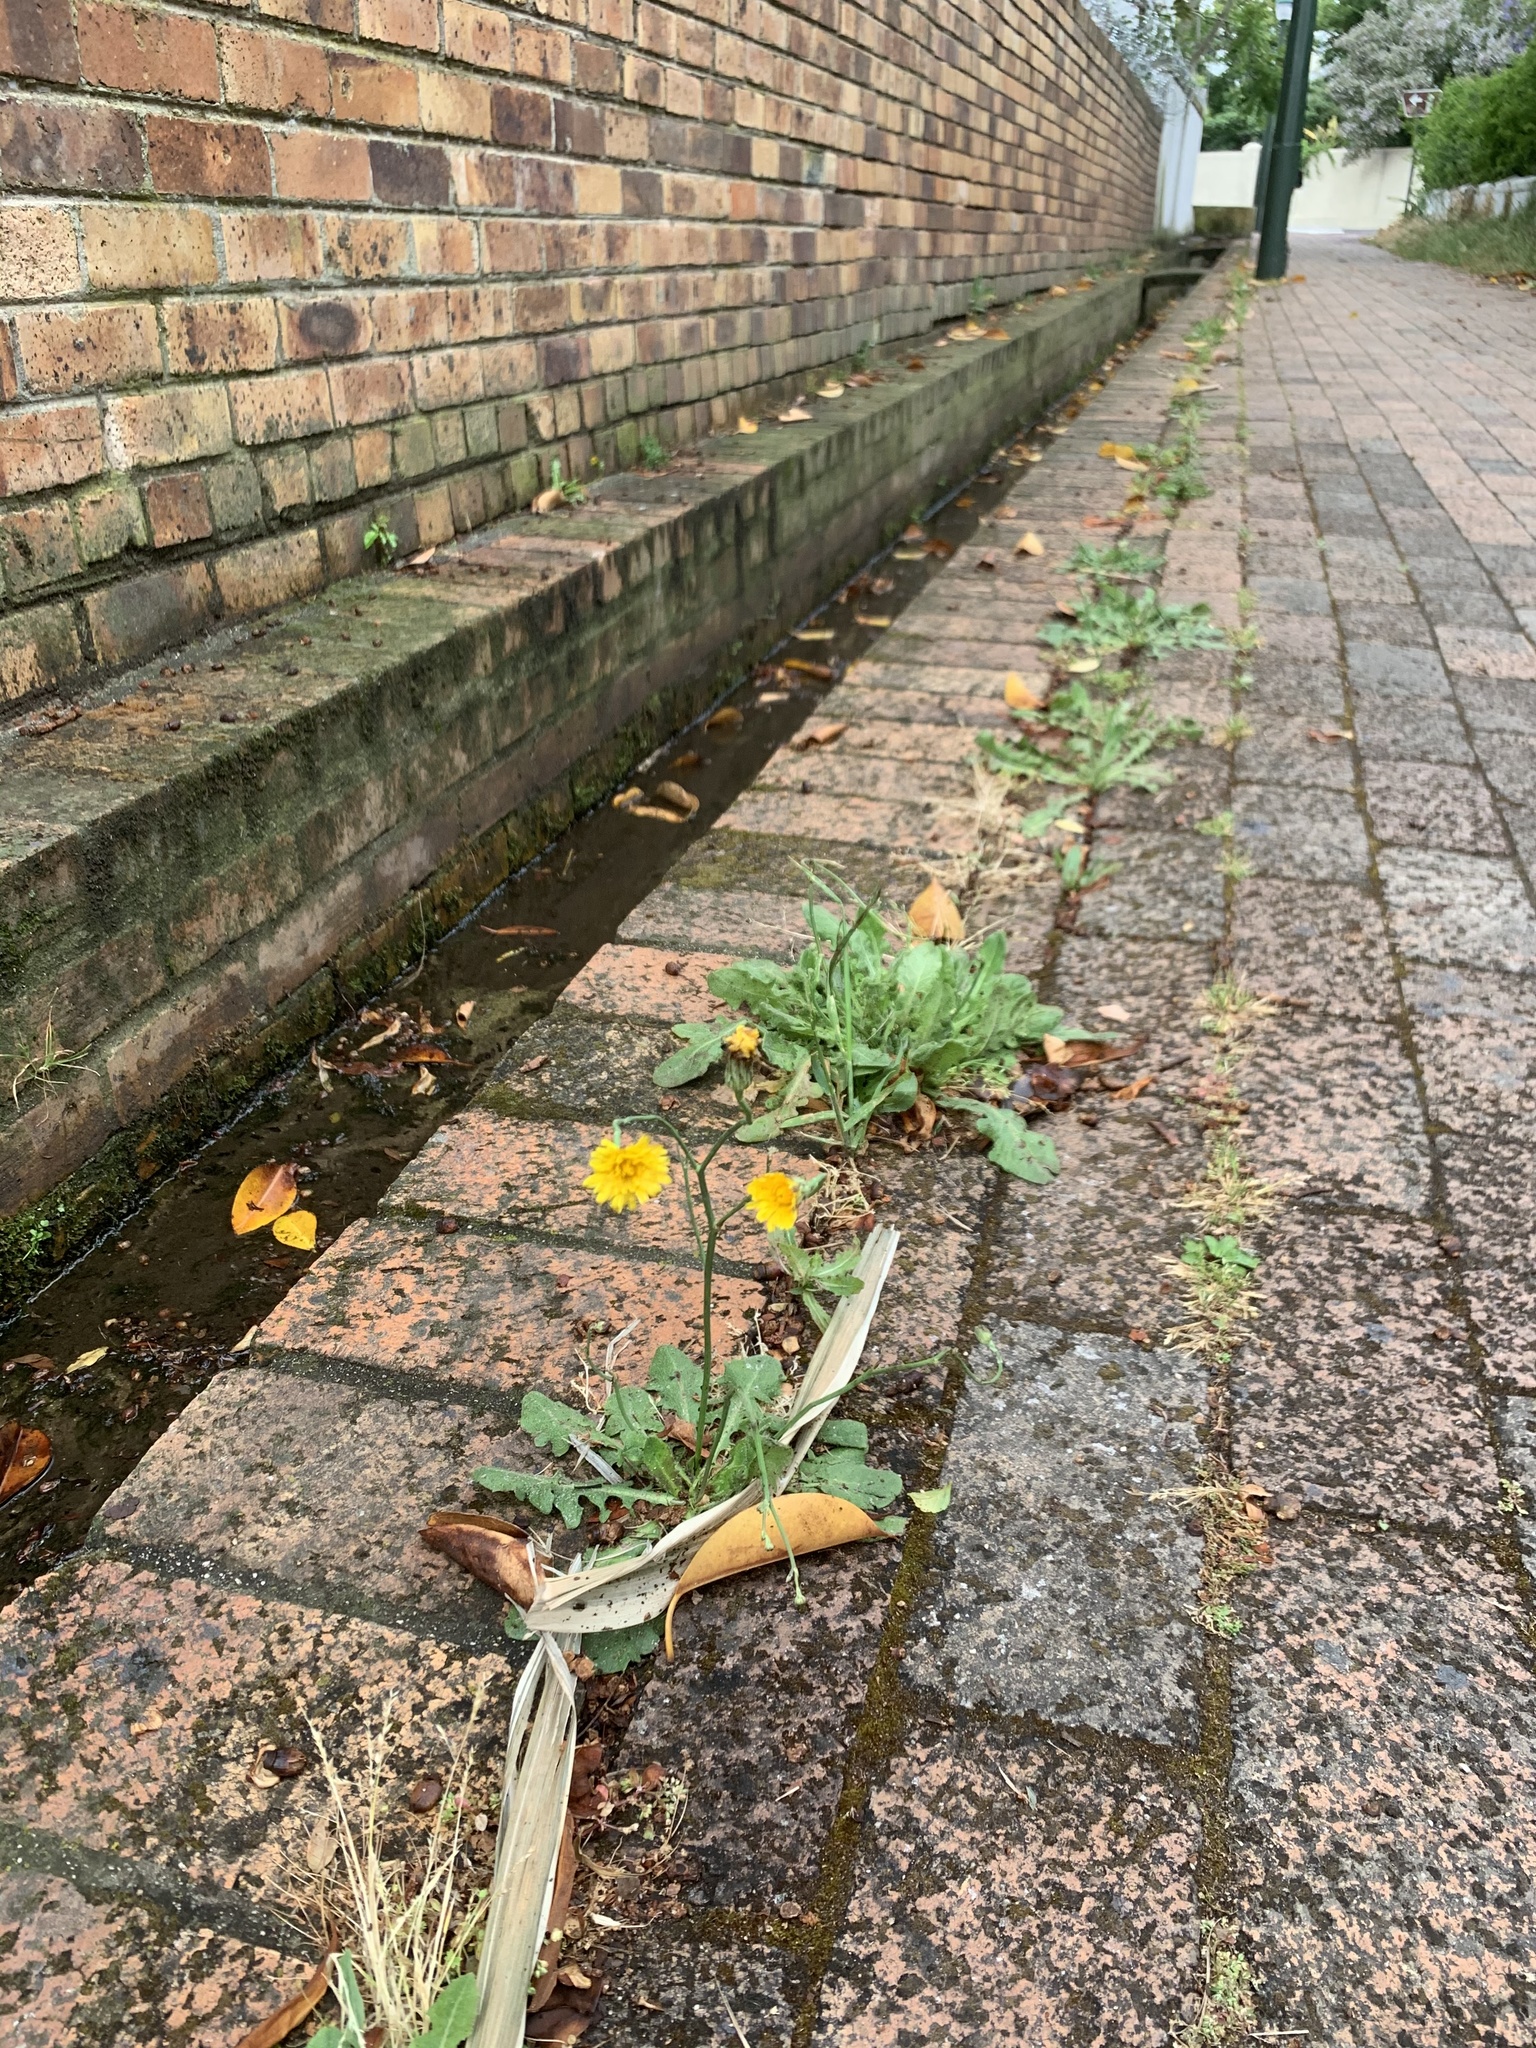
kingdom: Plantae
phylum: Tracheophyta
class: Magnoliopsida
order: Asterales
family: Asteraceae
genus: Hypochaeris
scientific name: Hypochaeris radicata
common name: Flatweed
